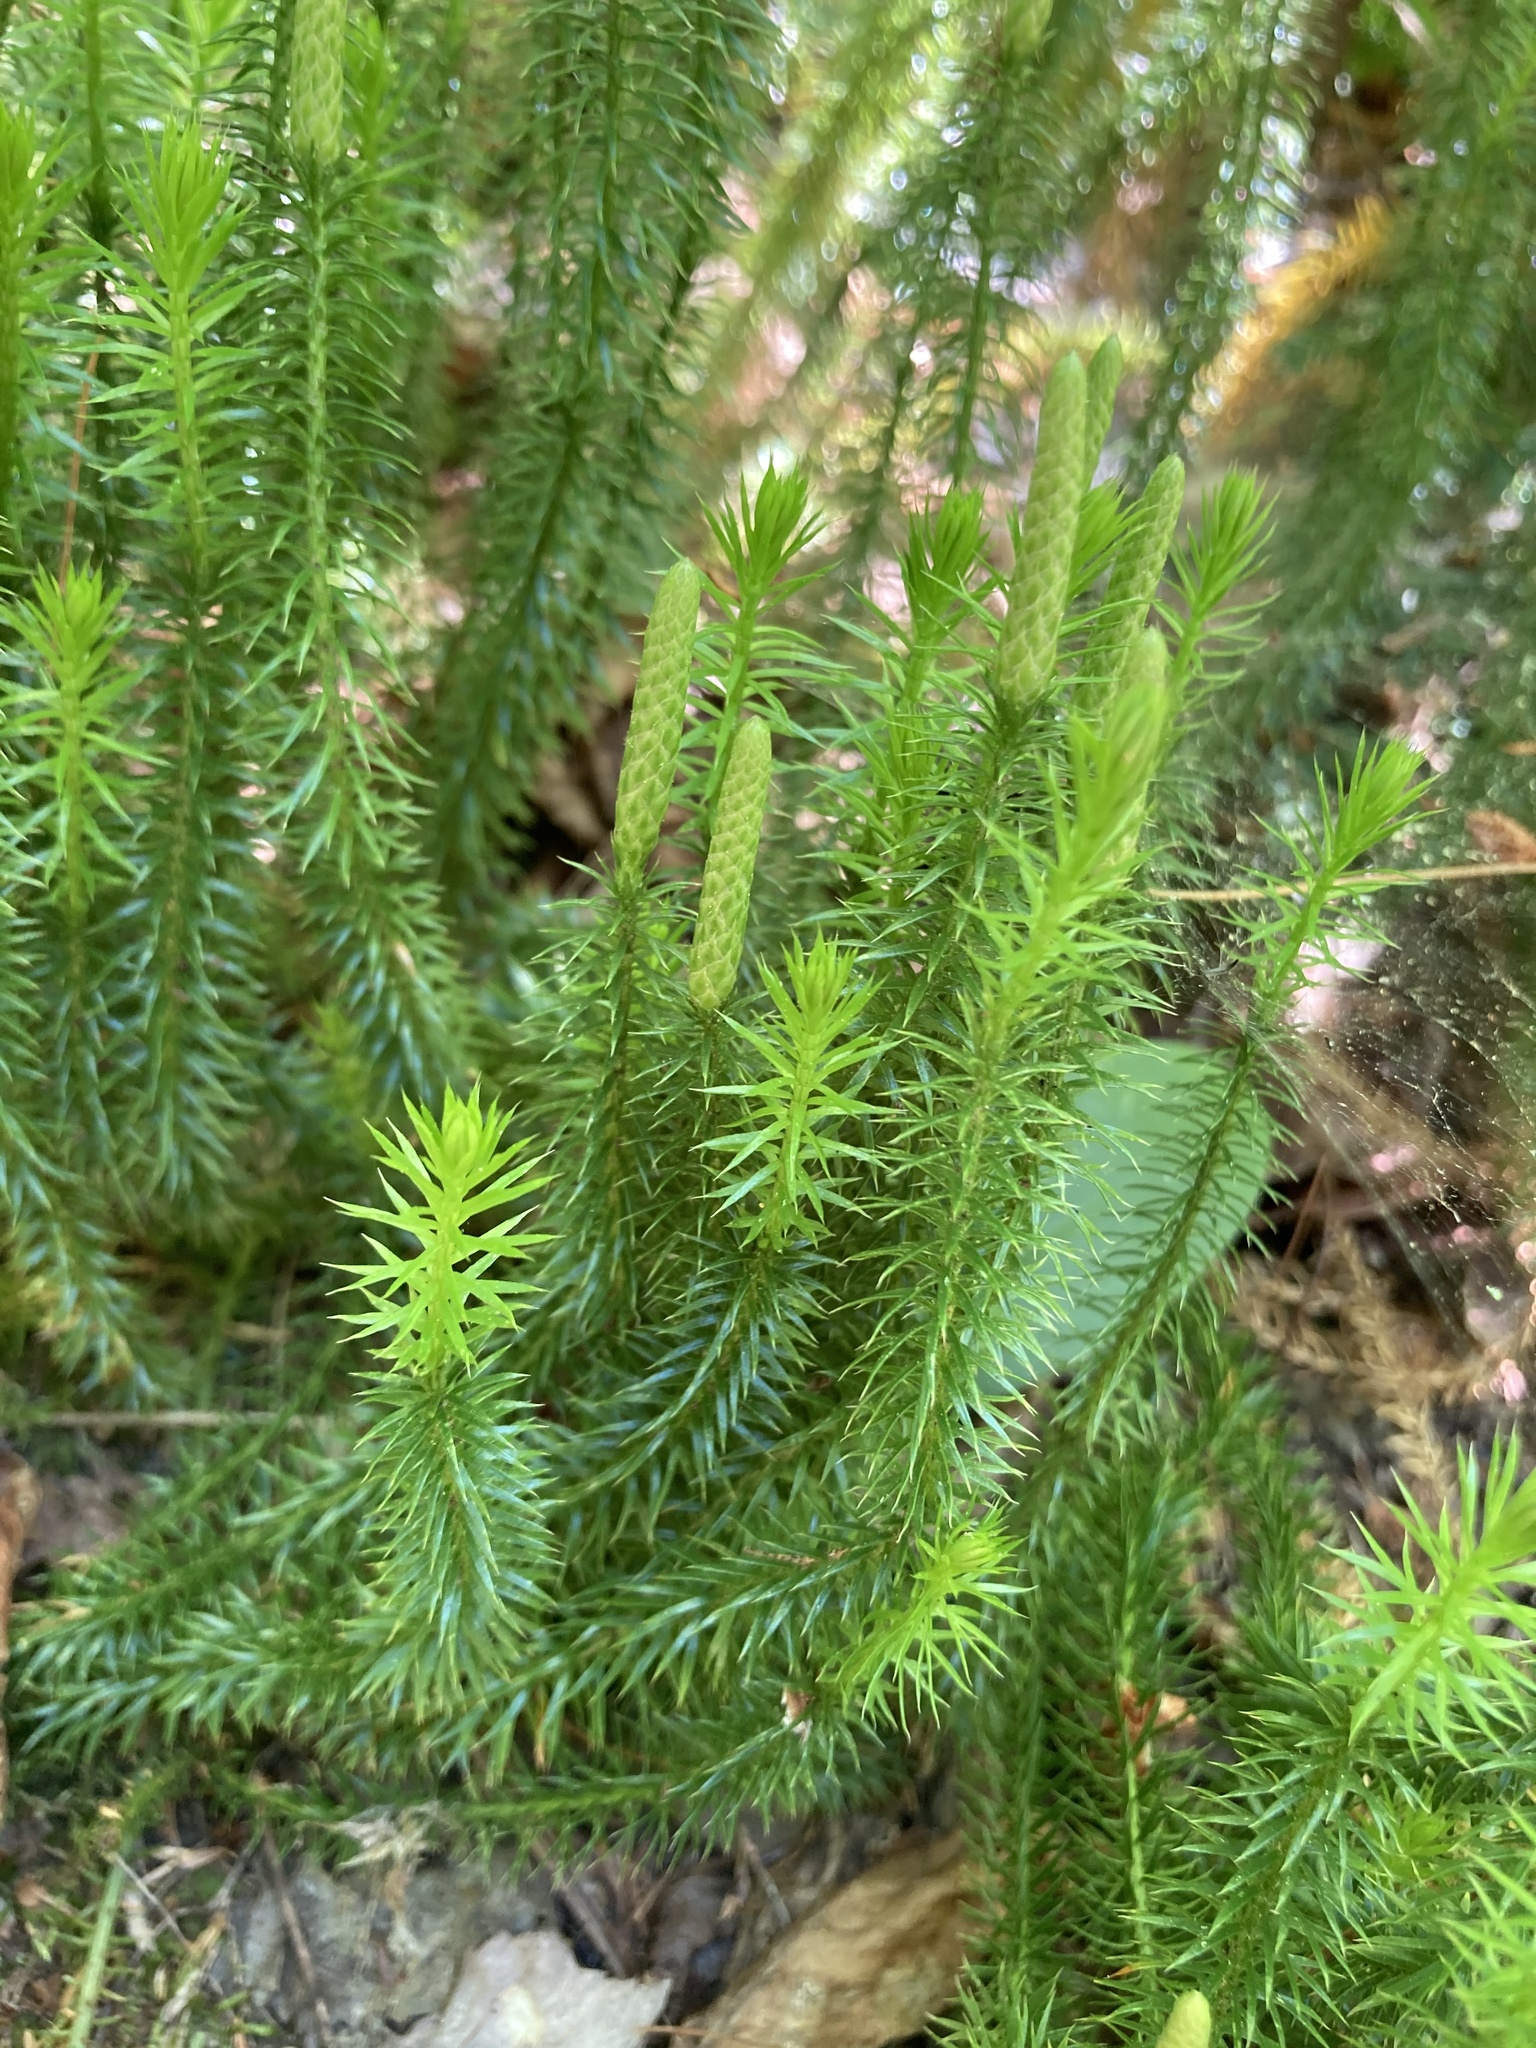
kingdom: Plantae
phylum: Tracheophyta
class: Lycopodiopsida
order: Lycopodiales
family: Lycopodiaceae
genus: Spinulum
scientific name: Spinulum annotinum
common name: Interrupted club-moss
